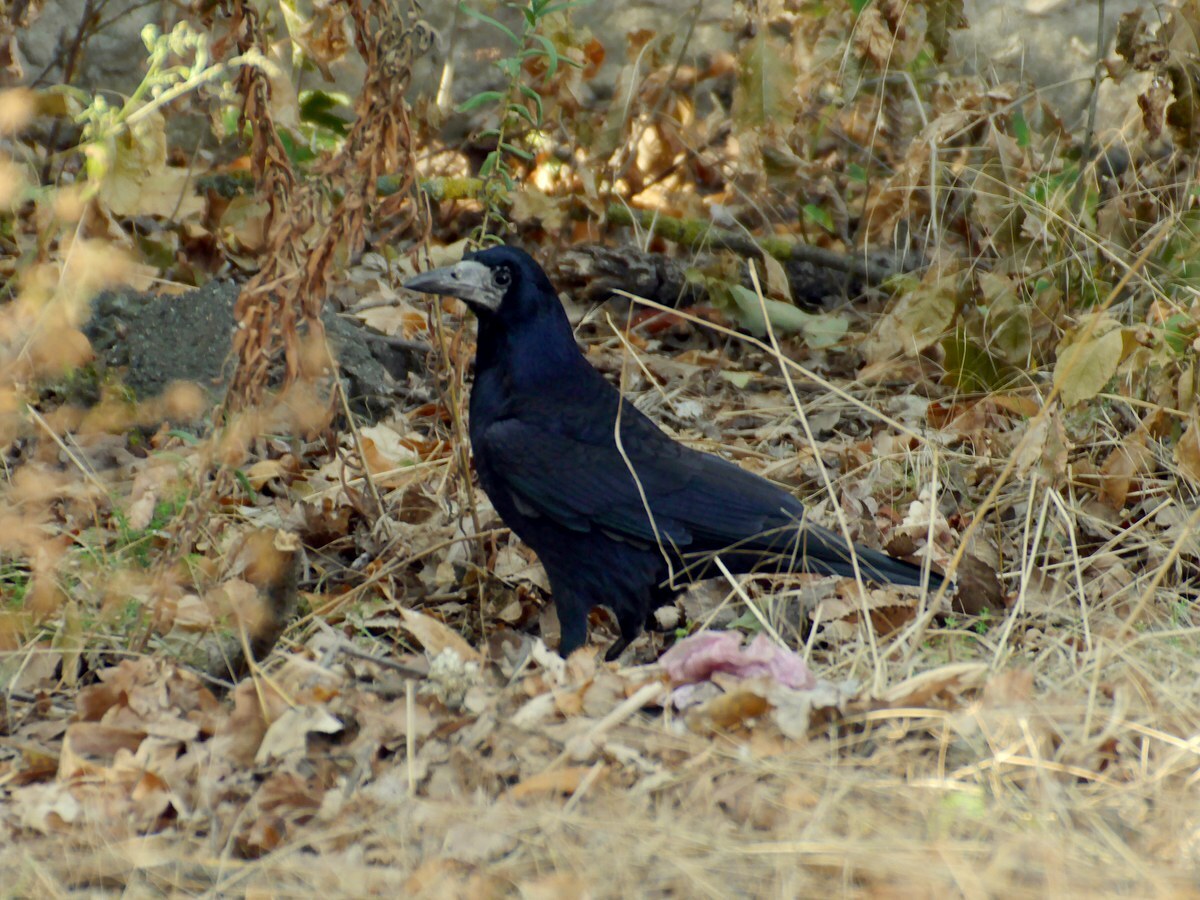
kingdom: Animalia
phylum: Chordata
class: Aves
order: Passeriformes
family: Corvidae
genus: Corvus
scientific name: Corvus frugilegus
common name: Rook
